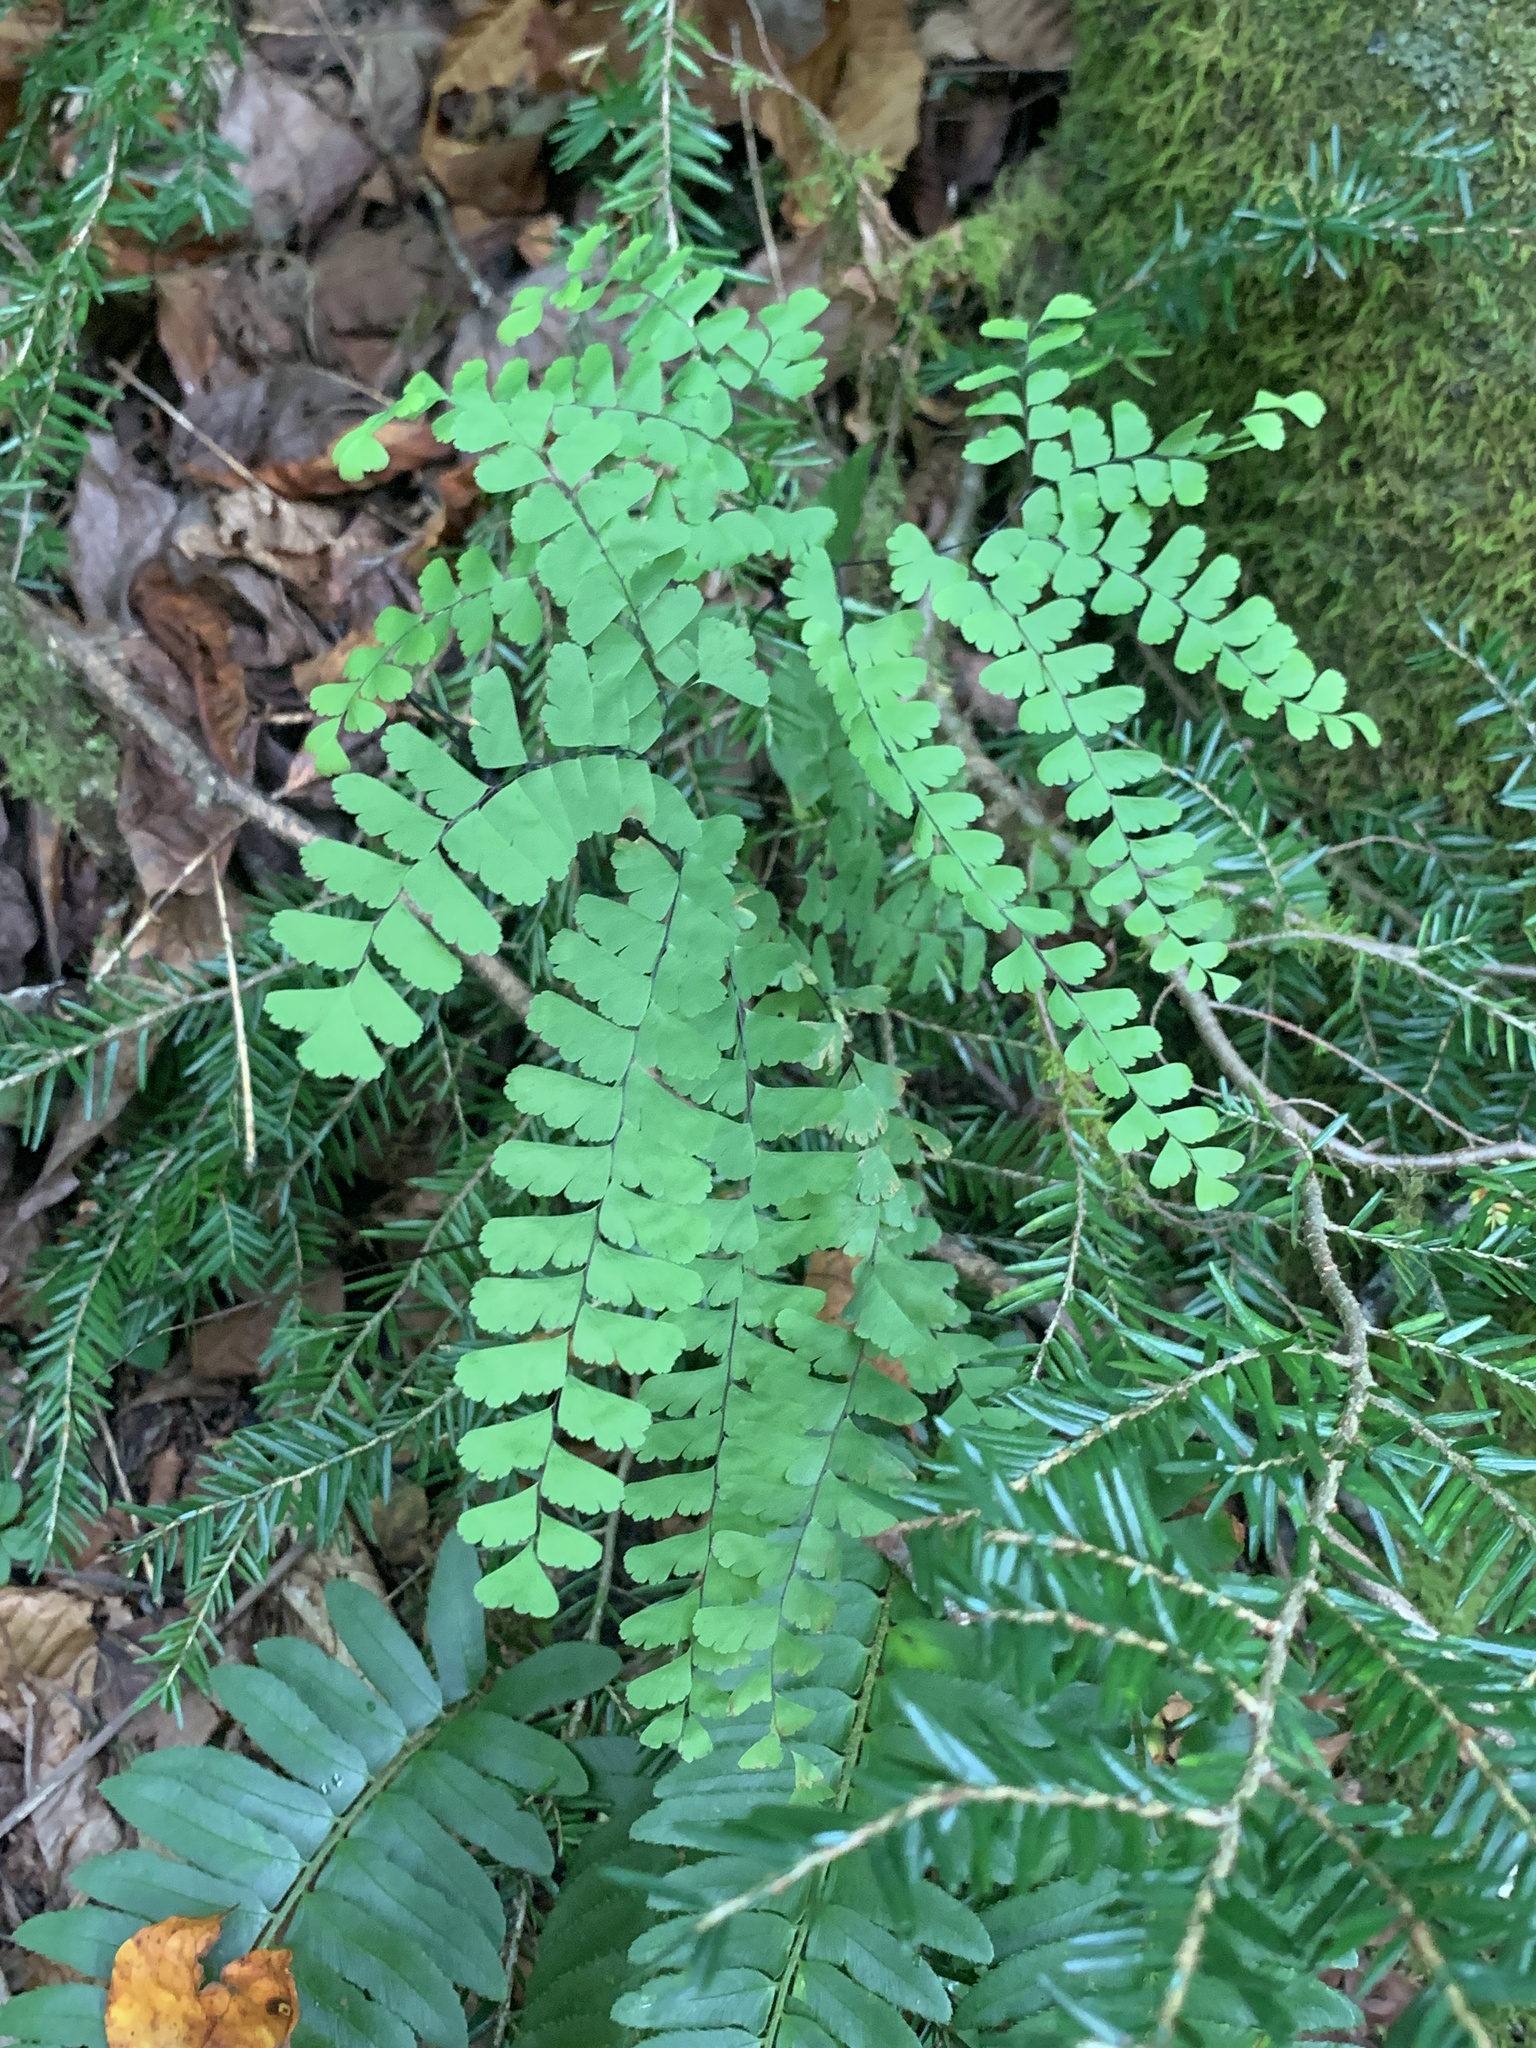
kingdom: Plantae
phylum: Tracheophyta
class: Polypodiopsida
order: Polypodiales
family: Pteridaceae
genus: Adiantum
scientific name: Adiantum pedatum
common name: Five-finger fern
